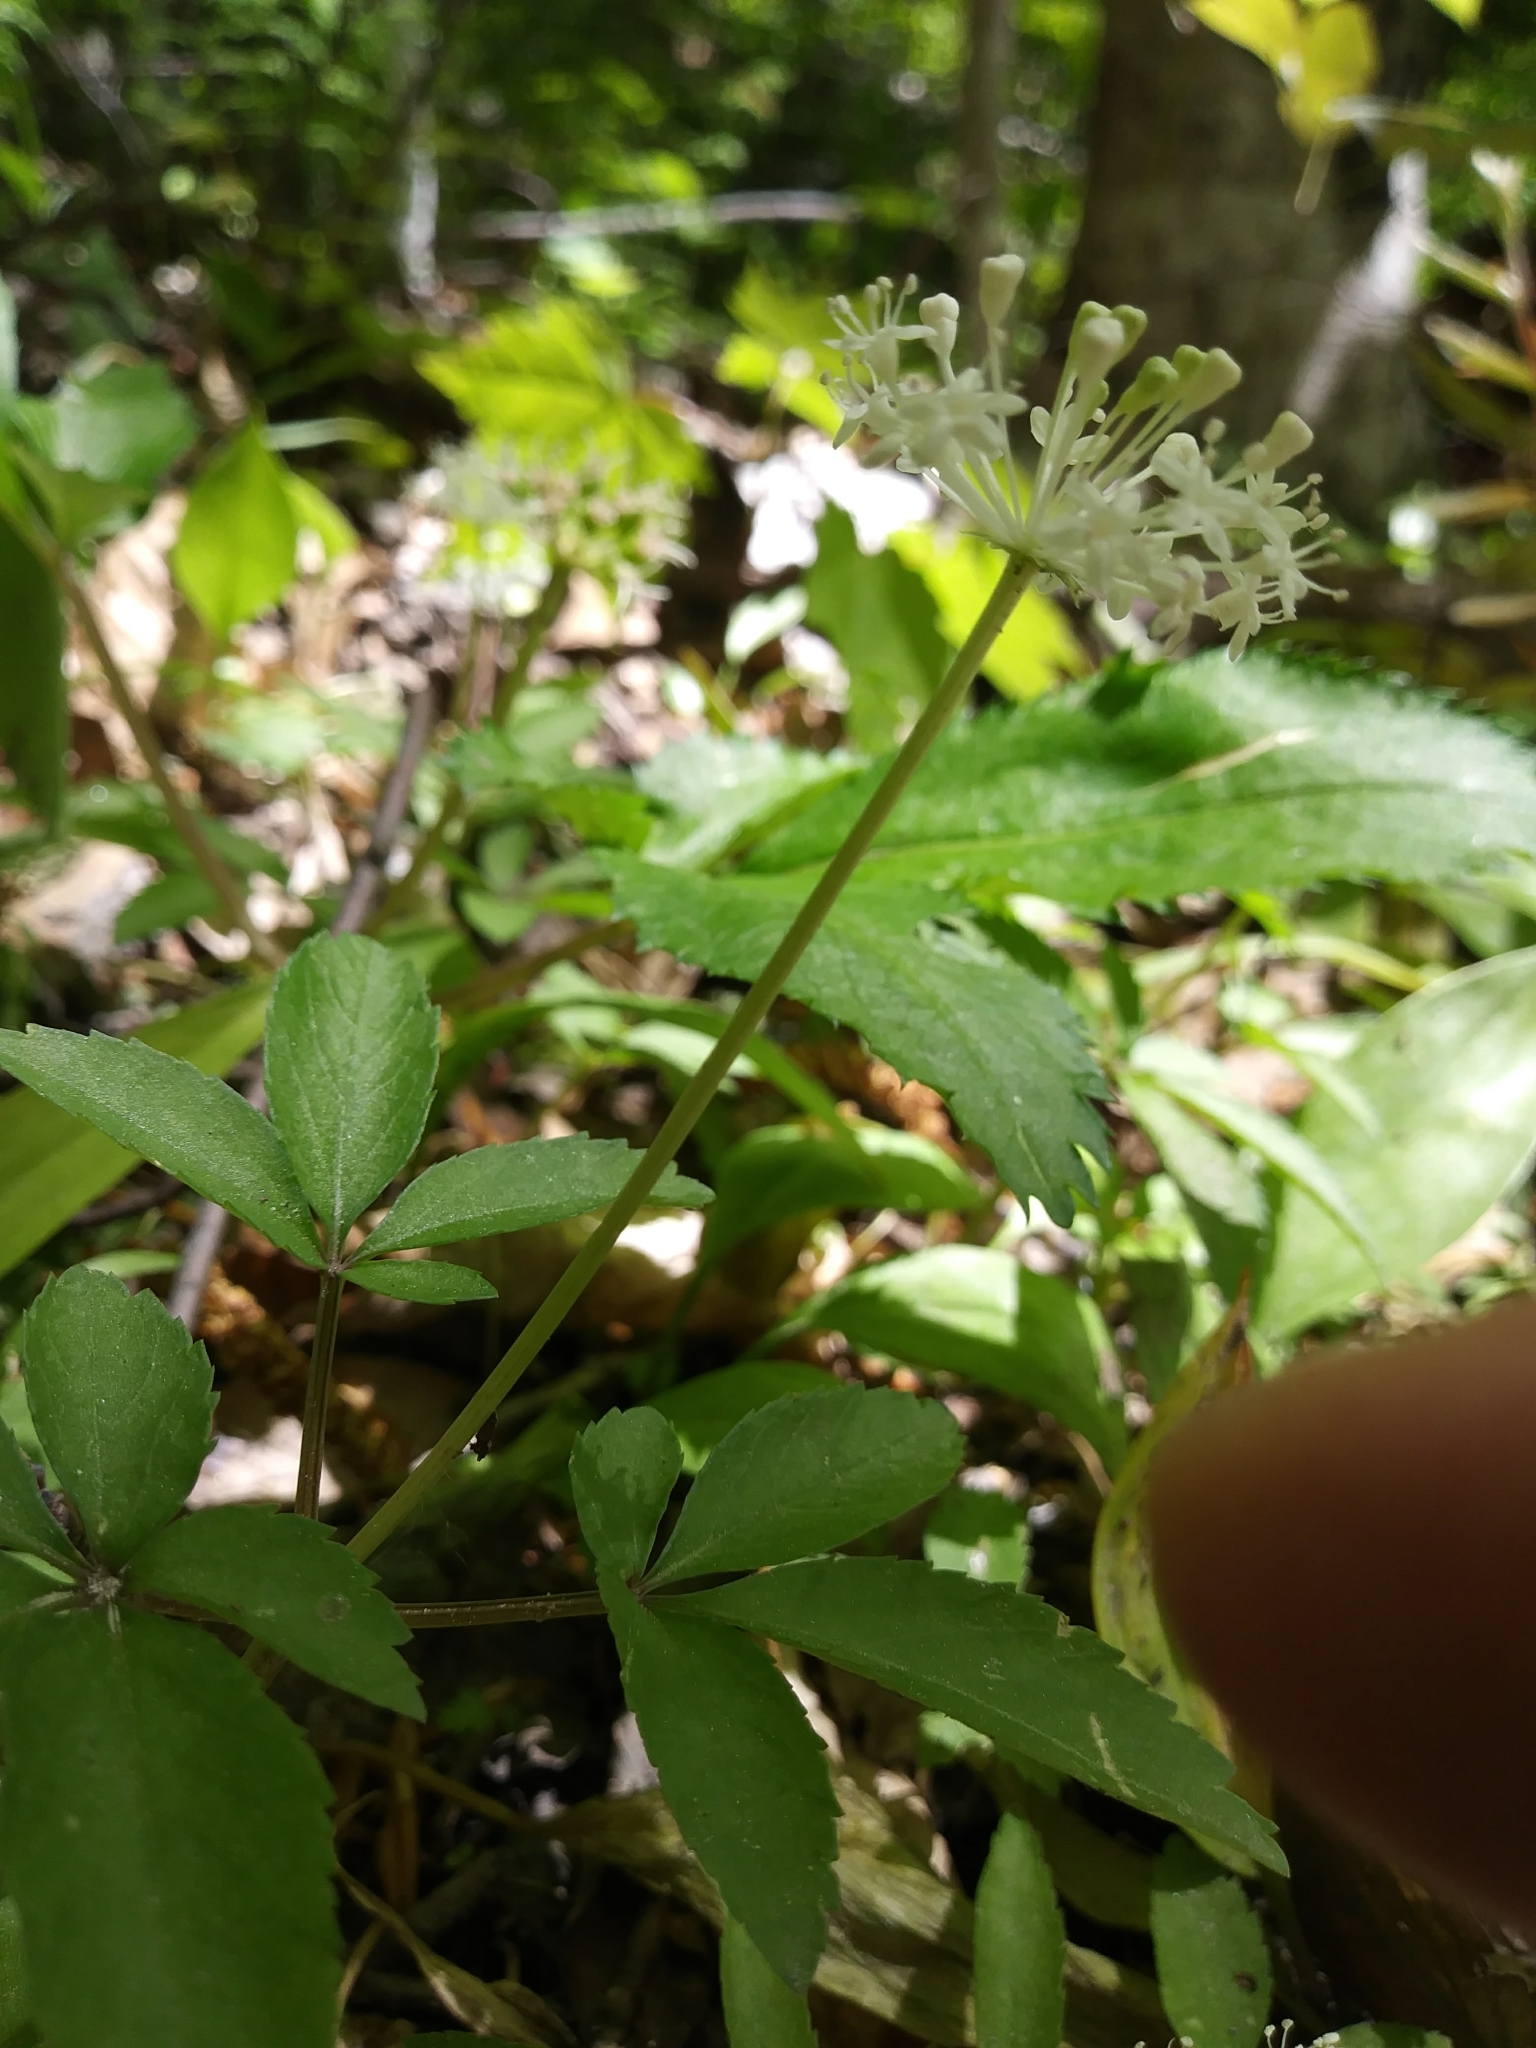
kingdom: Plantae
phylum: Tracheophyta
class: Magnoliopsida
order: Apiales
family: Araliaceae
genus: Panax
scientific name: Panax trifolius
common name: Dwarf ginseng
